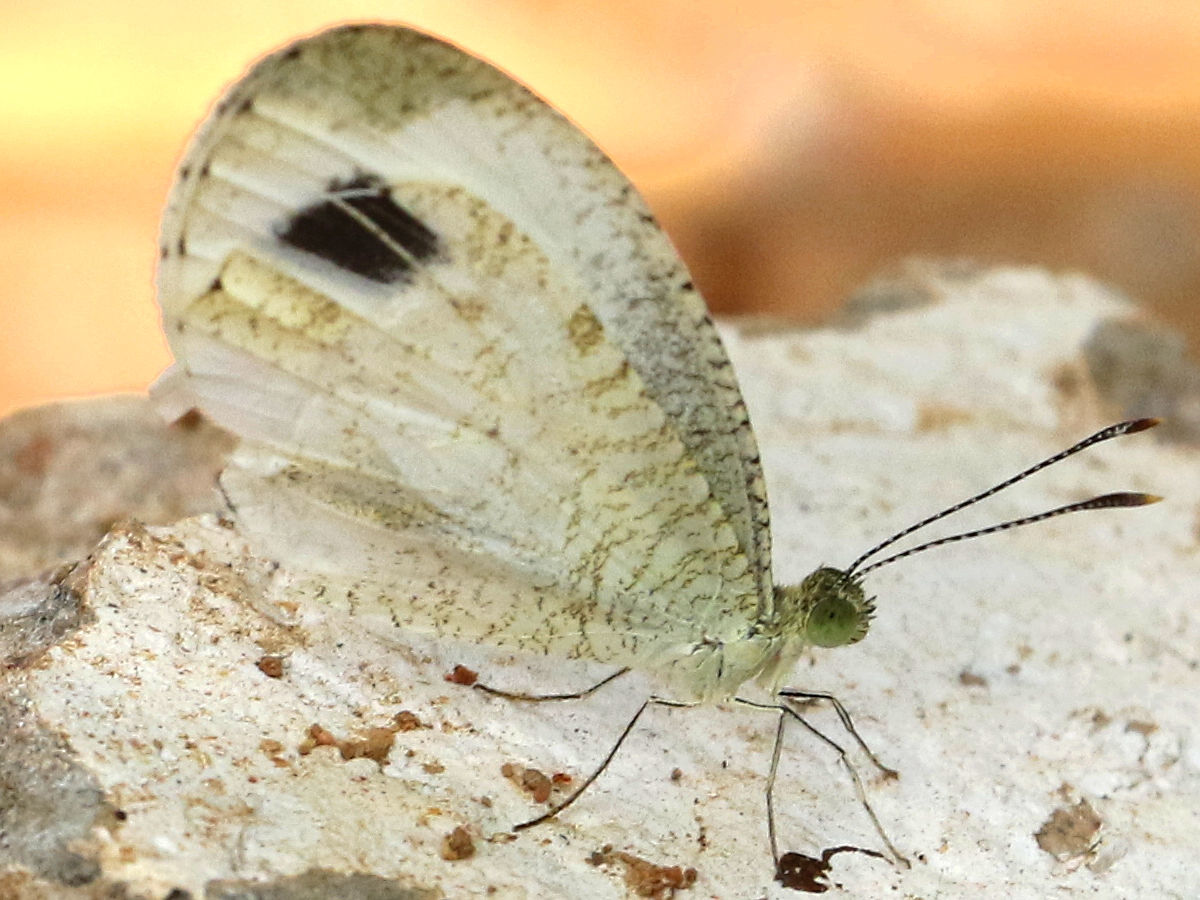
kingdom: Animalia
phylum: Arthropoda
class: Insecta
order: Lepidoptera
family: Pieridae
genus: Leptosia
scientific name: Leptosia nina
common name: Psyche
